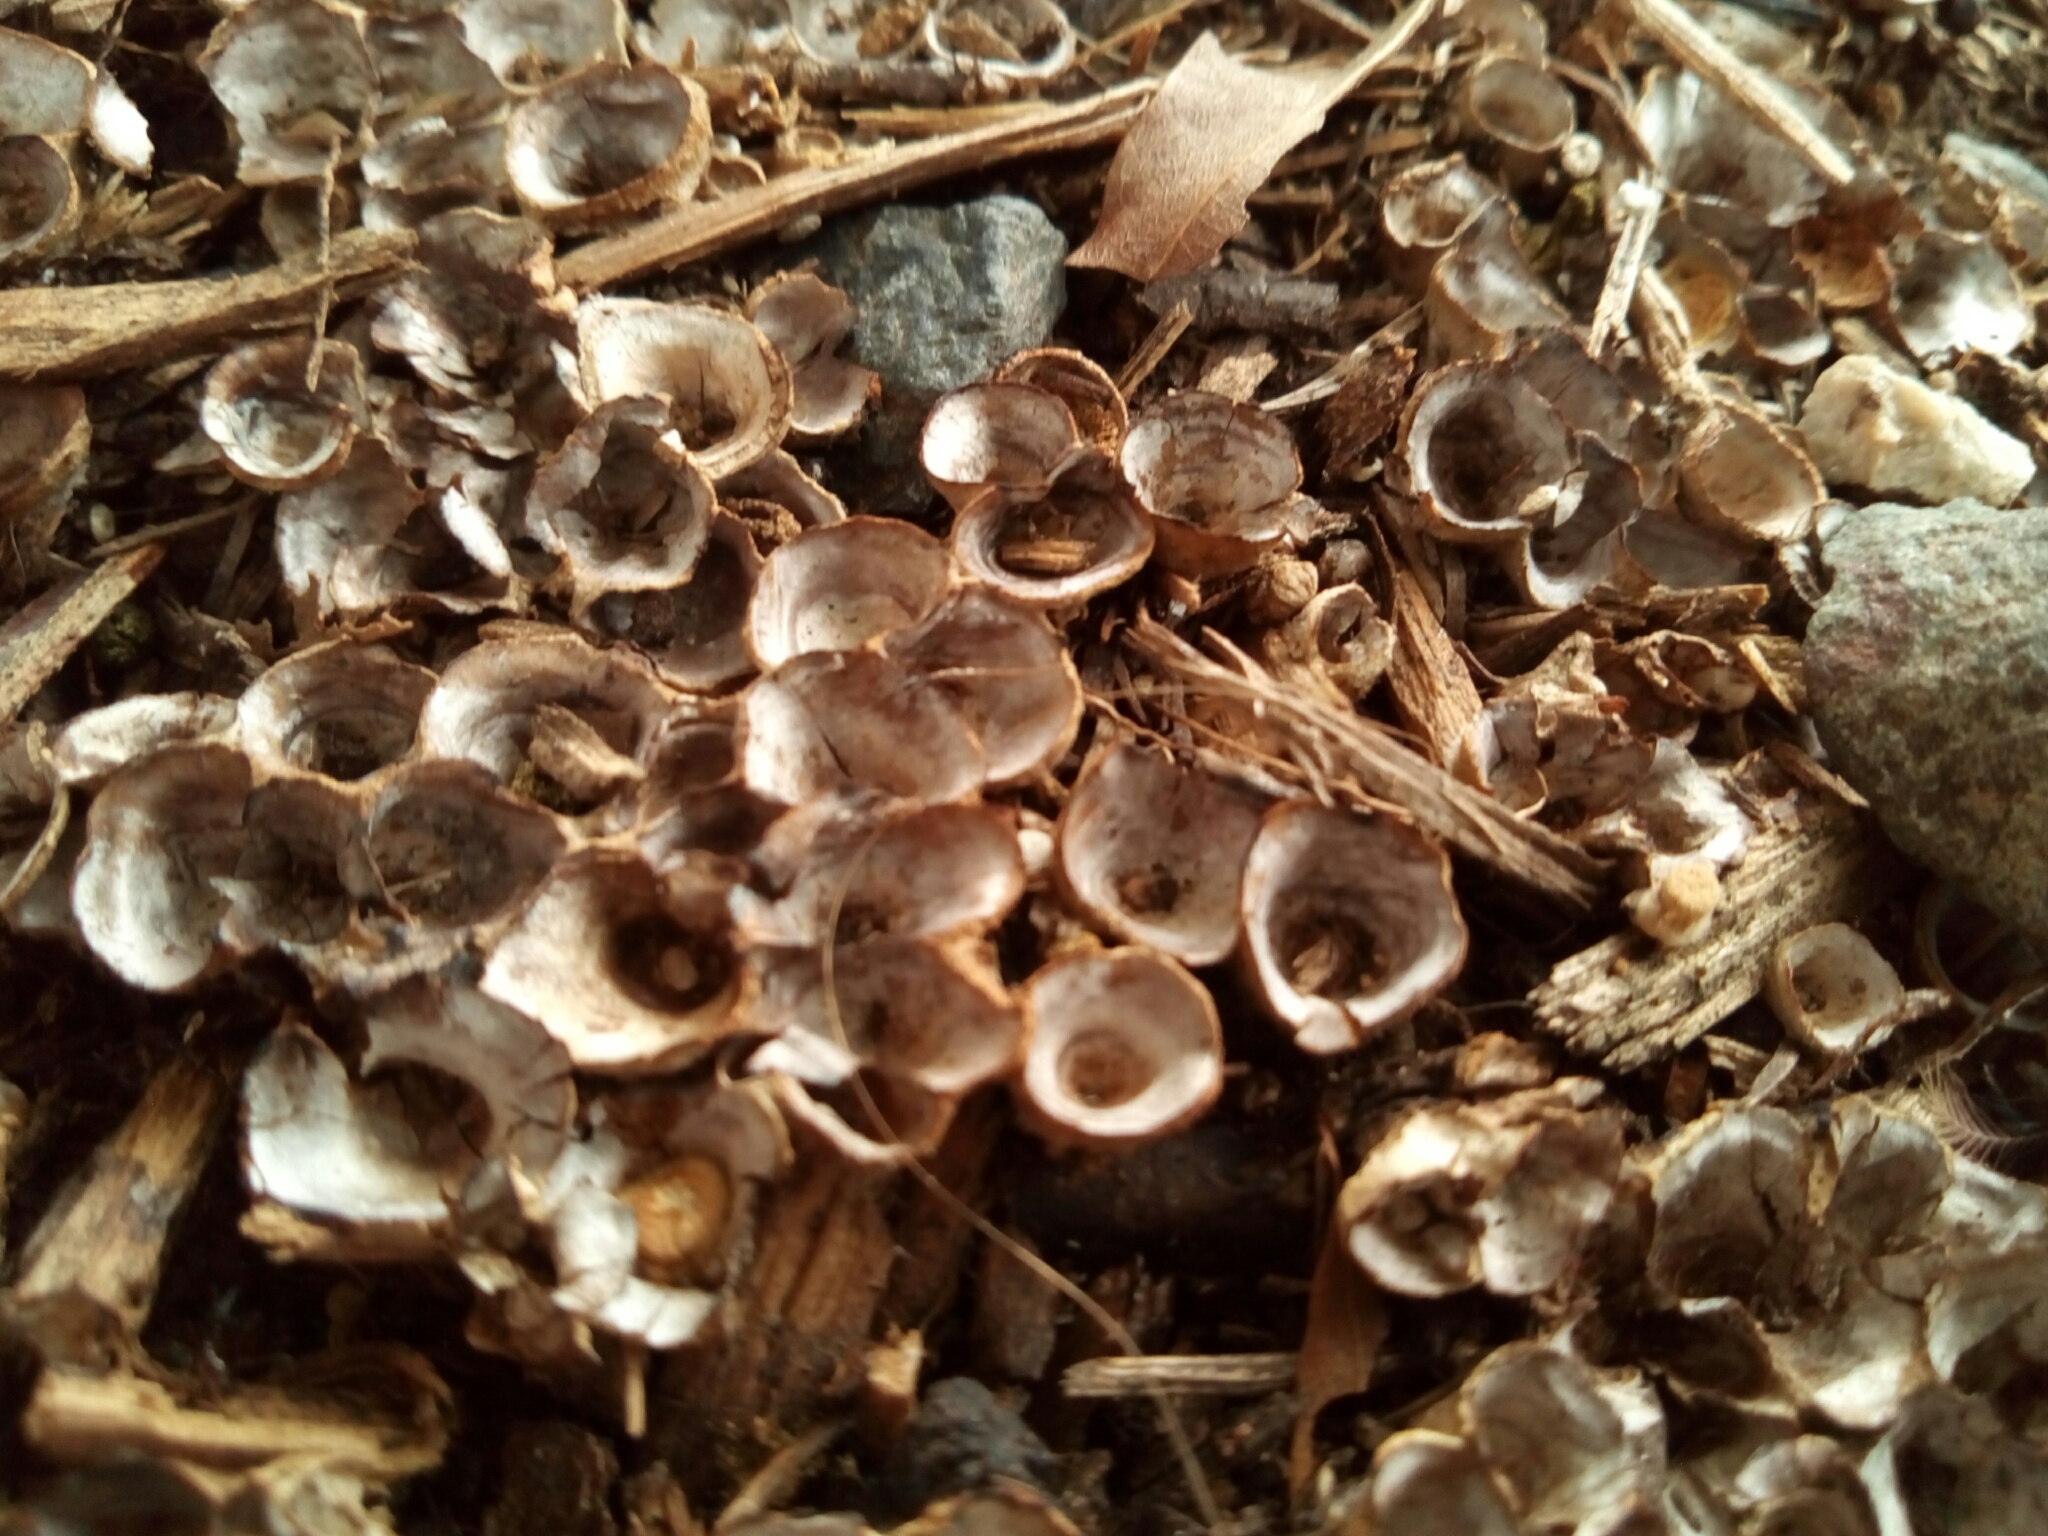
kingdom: Fungi
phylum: Basidiomycota
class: Agaricomycetes
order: Agaricales
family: Nidulariaceae
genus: Crucibulum
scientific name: Crucibulum laeve
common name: Common bird's nest
